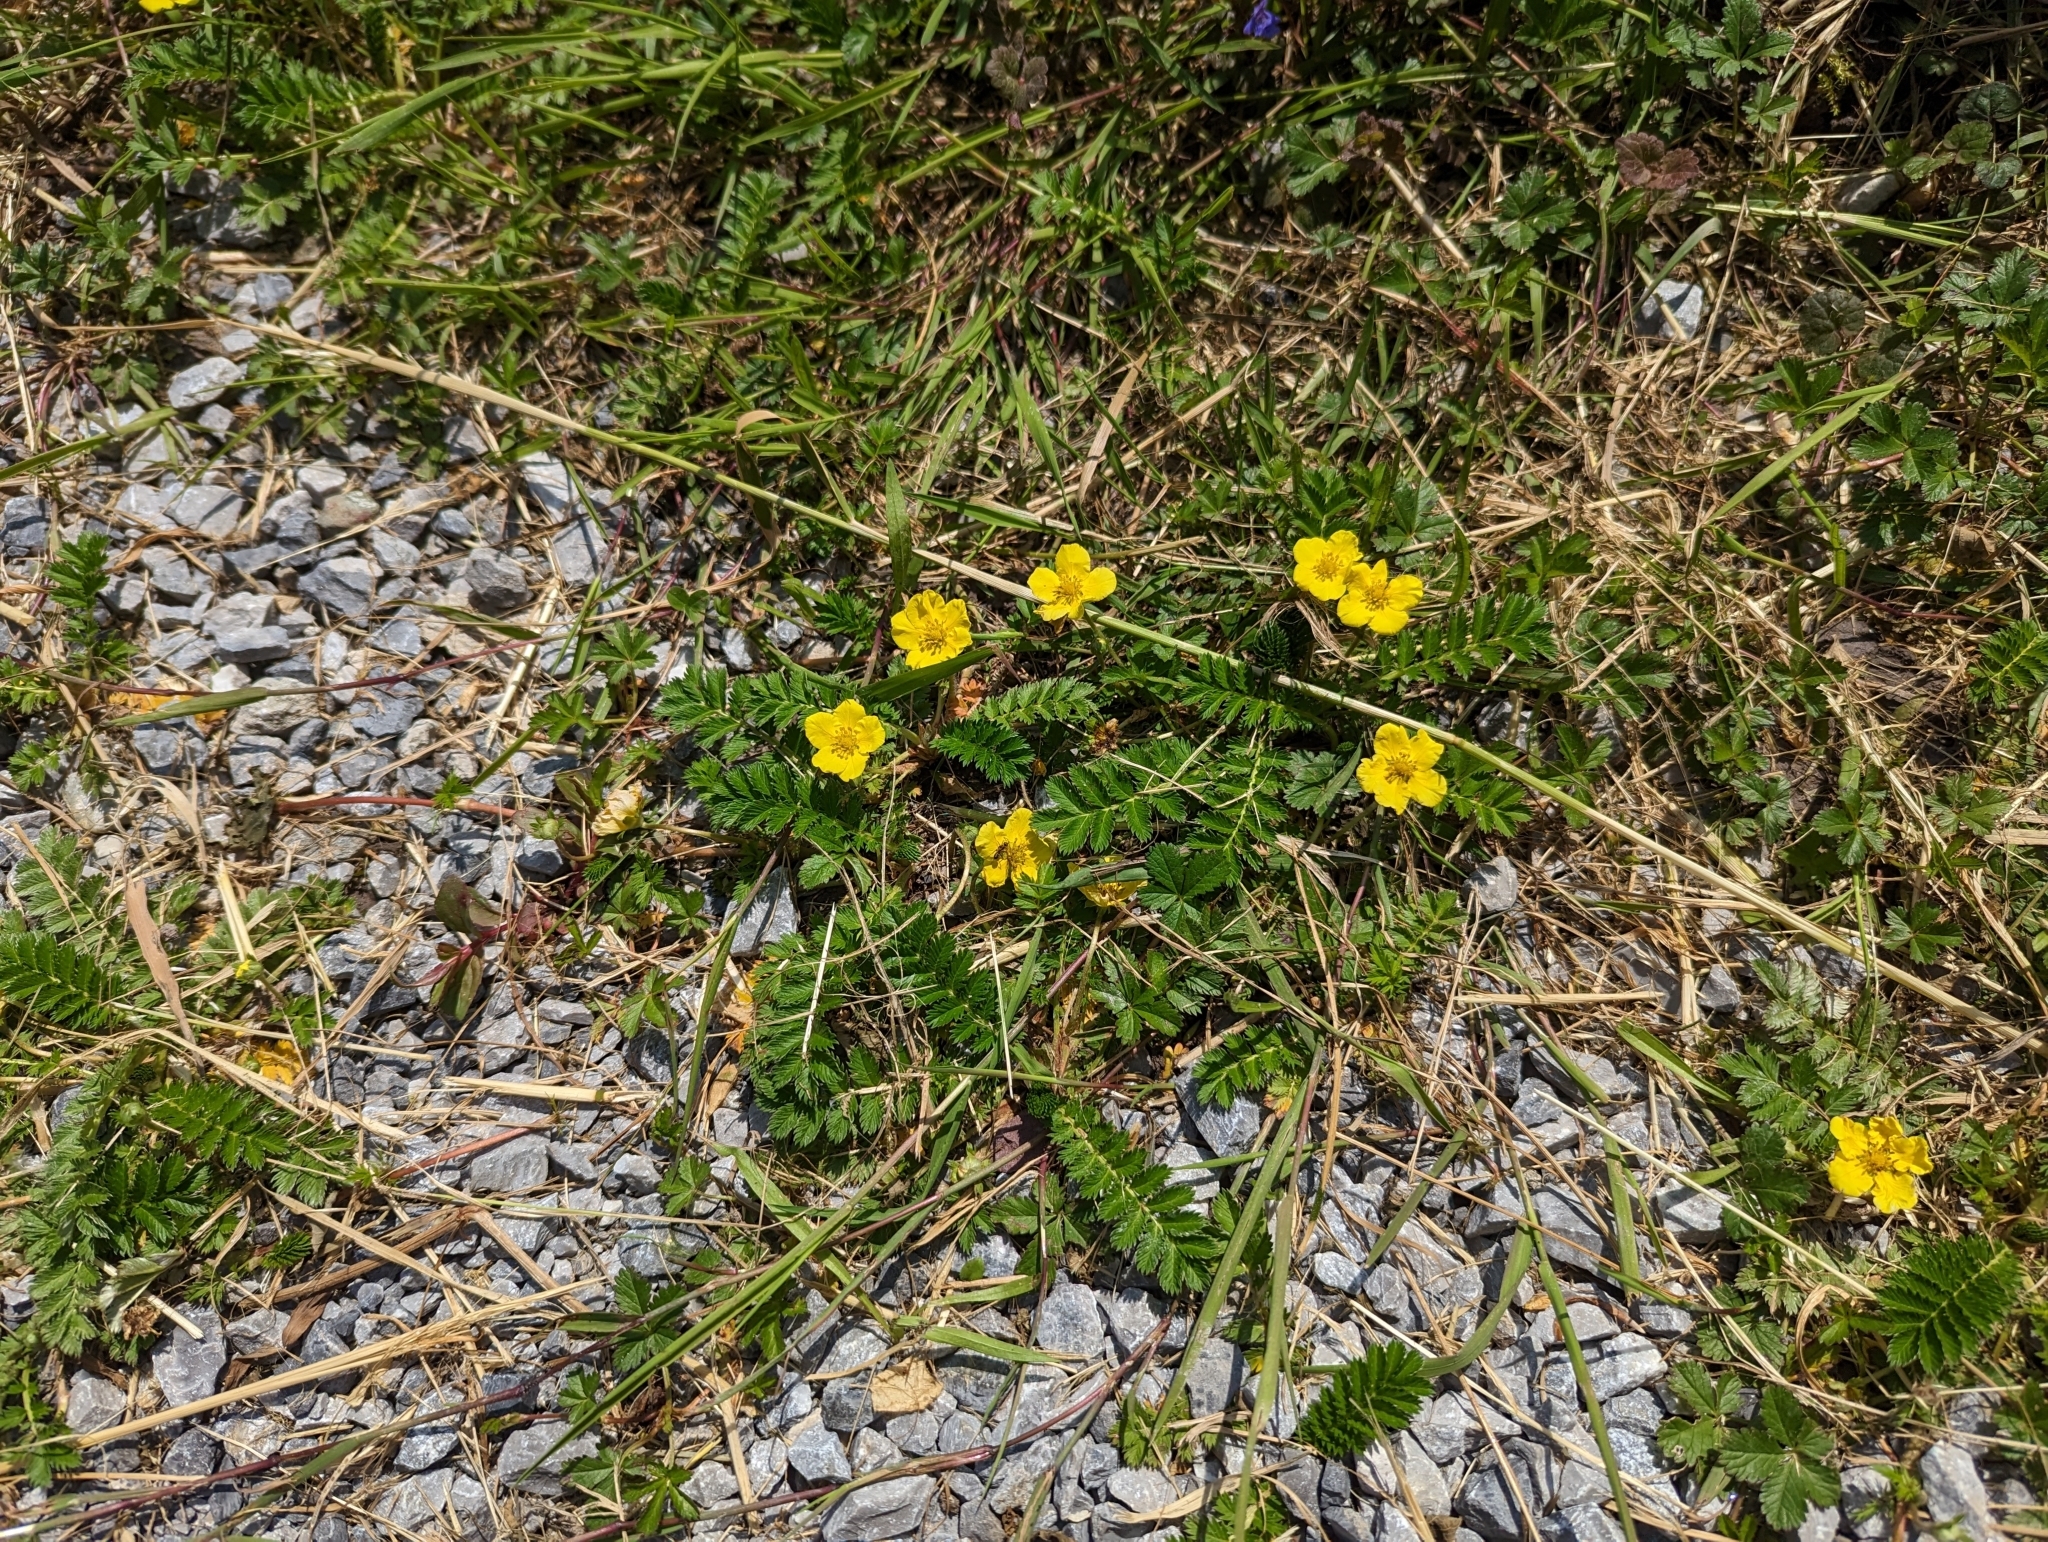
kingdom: Plantae
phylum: Tracheophyta
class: Magnoliopsida
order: Rosales
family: Rosaceae
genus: Argentina
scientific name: Argentina anserina
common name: Common silverweed
